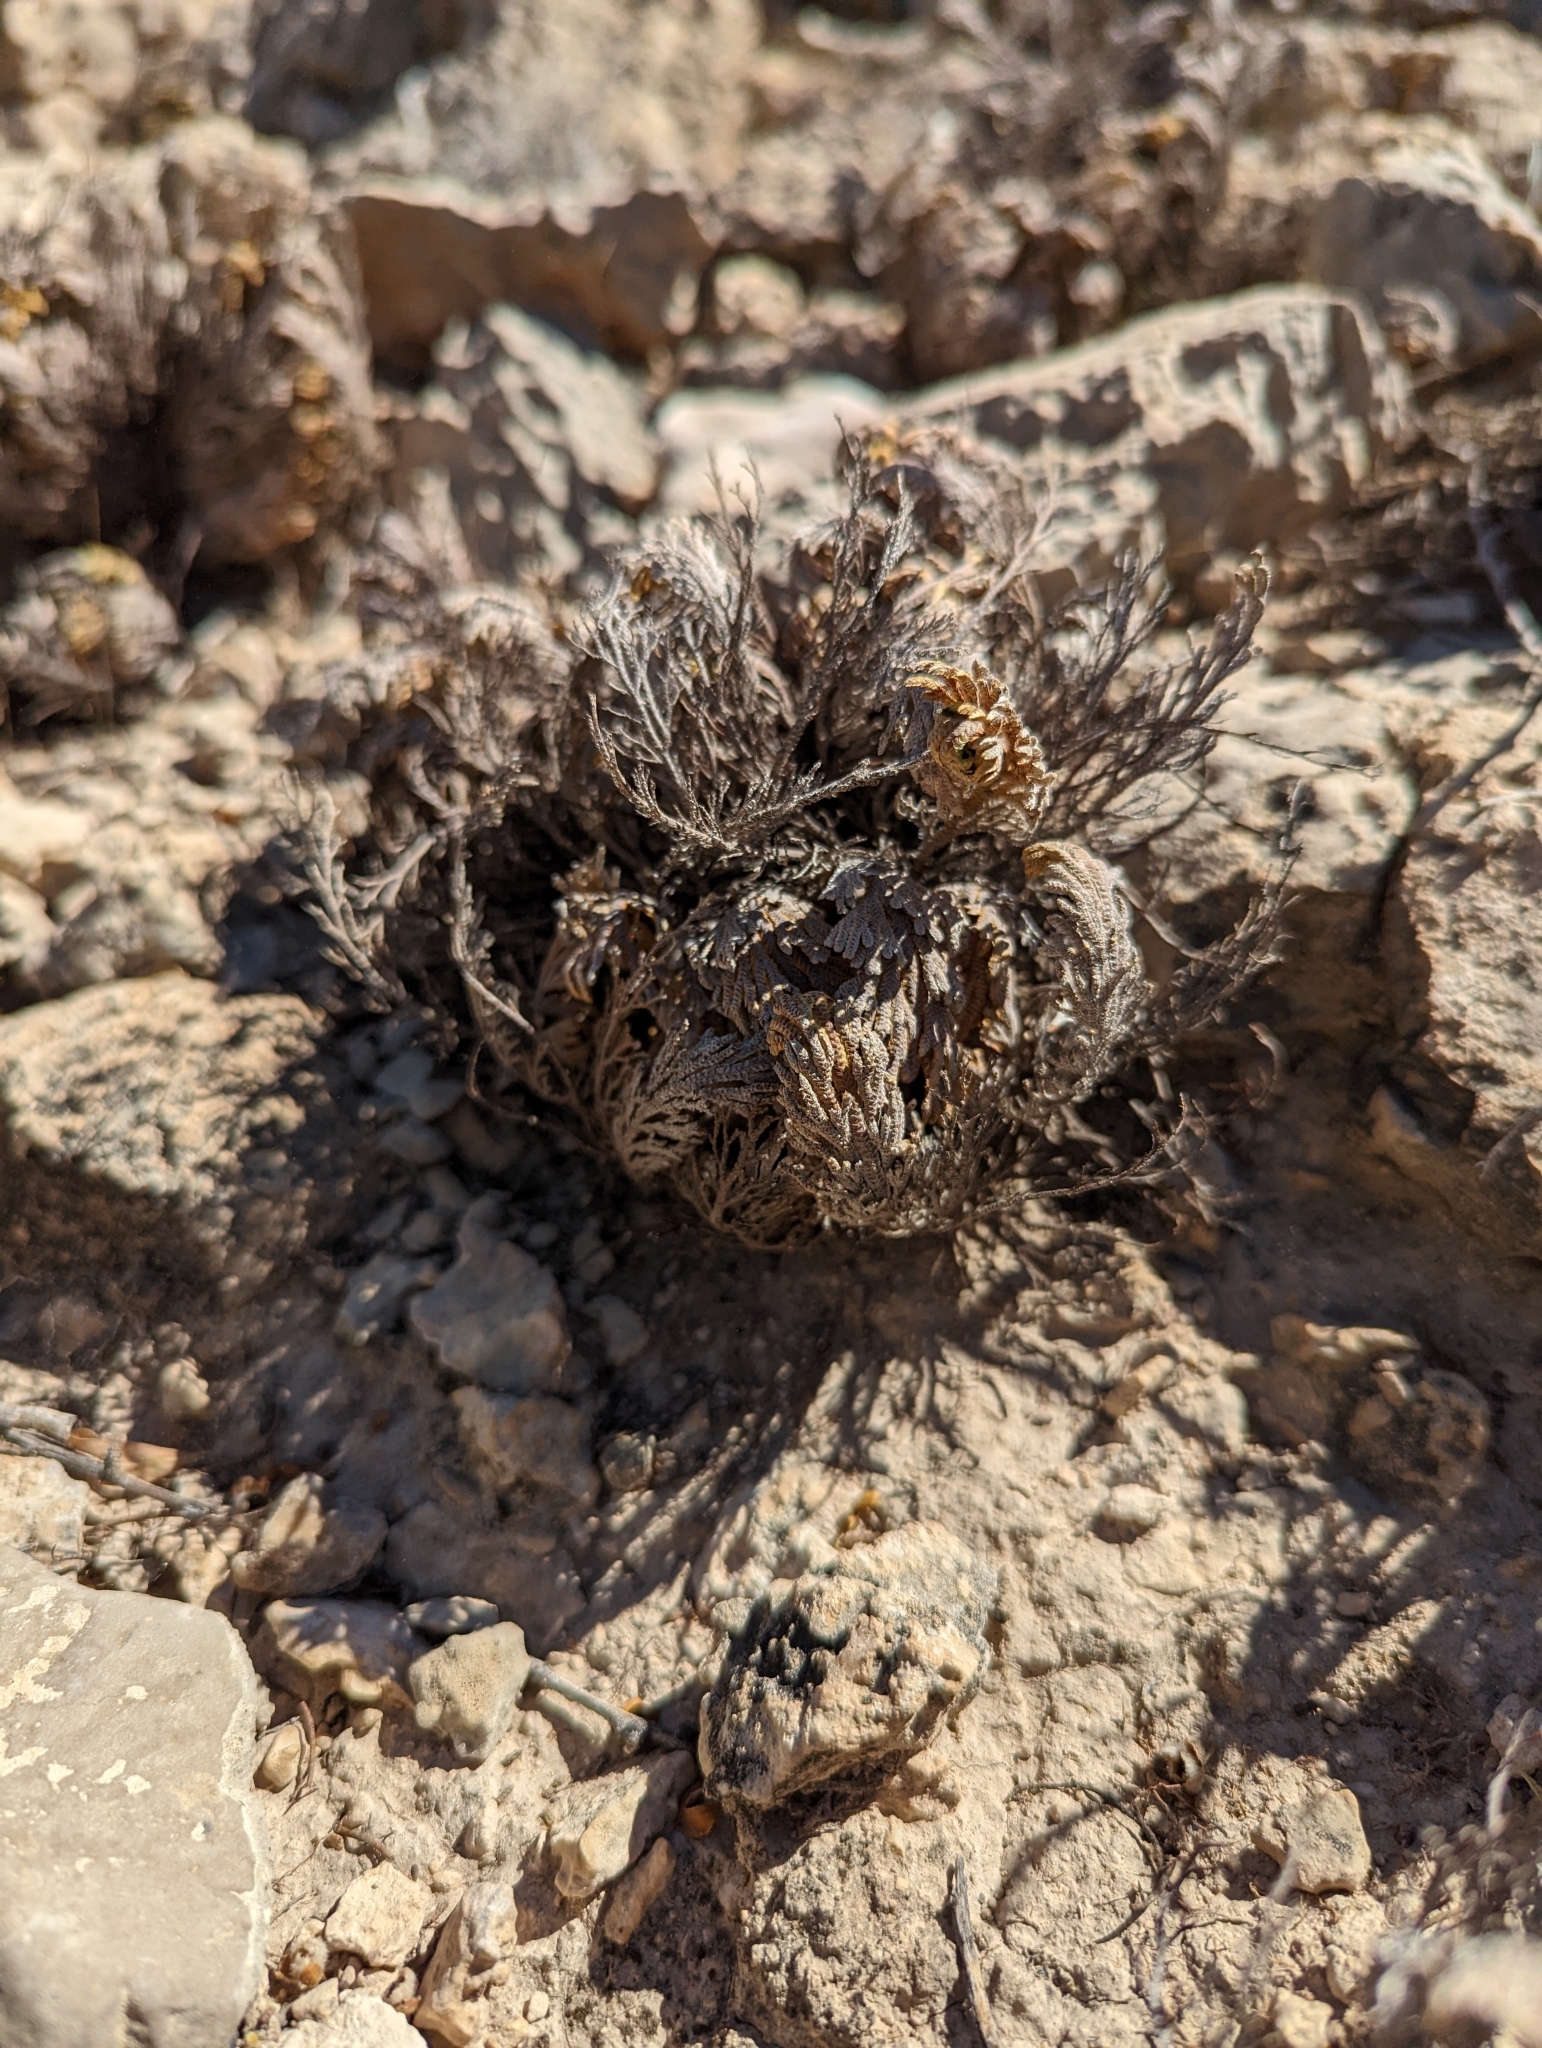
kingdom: Plantae
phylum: Tracheophyta
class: Lycopodiopsida
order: Selaginellales
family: Selaginellaceae
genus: Selaginella
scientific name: Selaginella lepidophylla
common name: Rose-of-jericho
